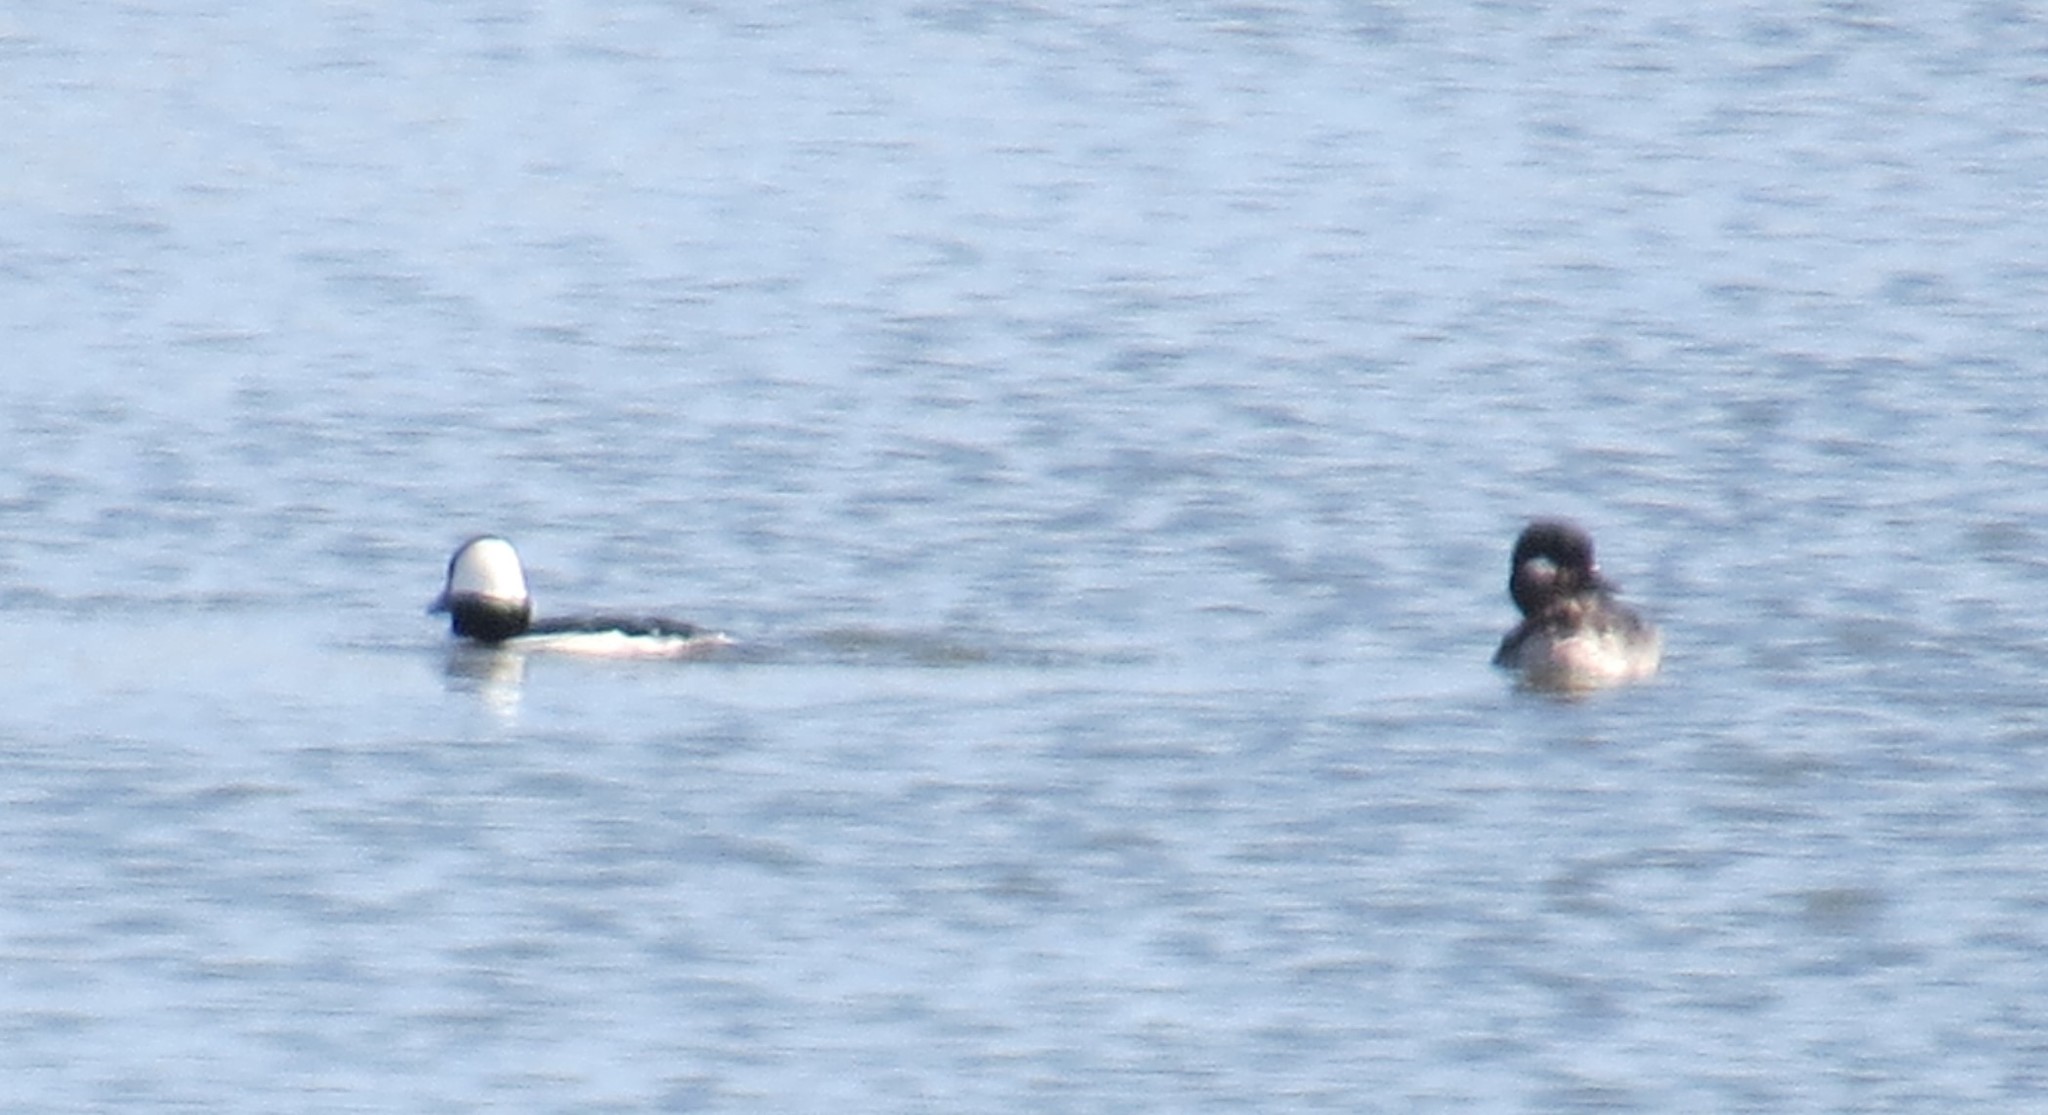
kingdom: Animalia
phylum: Chordata
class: Aves
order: Anseriformes
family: Anatidae
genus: Bucephala
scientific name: Bucephala albeola
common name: Bufflehead
